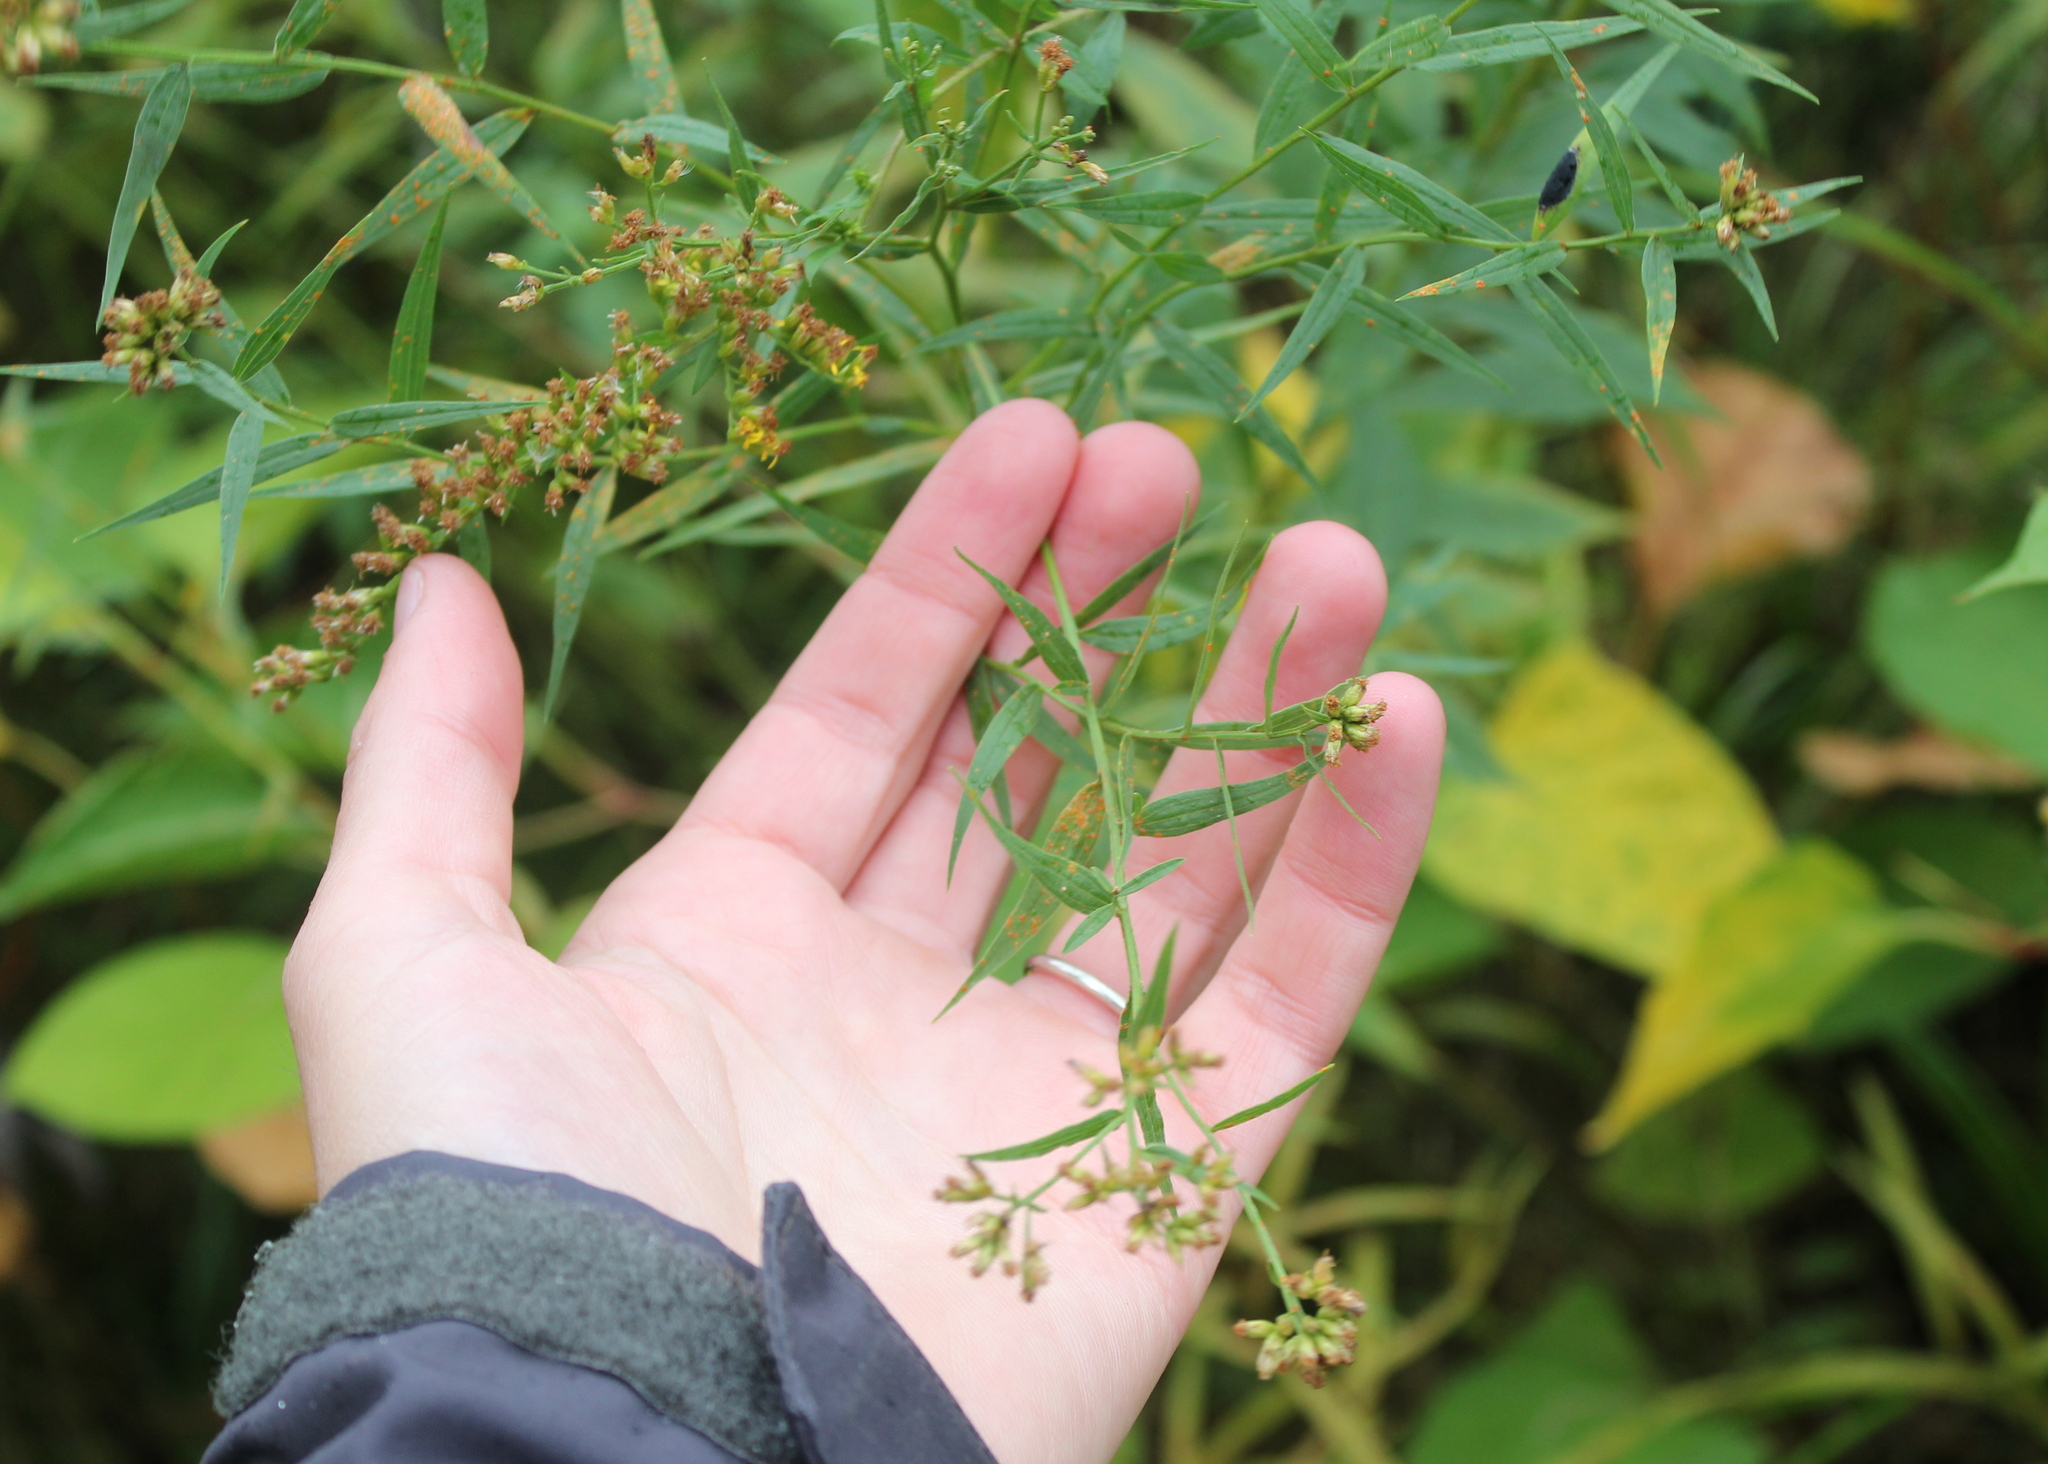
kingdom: Plantae
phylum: Tracheophyta
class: Magnoliopsida
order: Asterales
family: Asteraceae
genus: Euthamia
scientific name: Euthamia graminifolia
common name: Common goldentop
